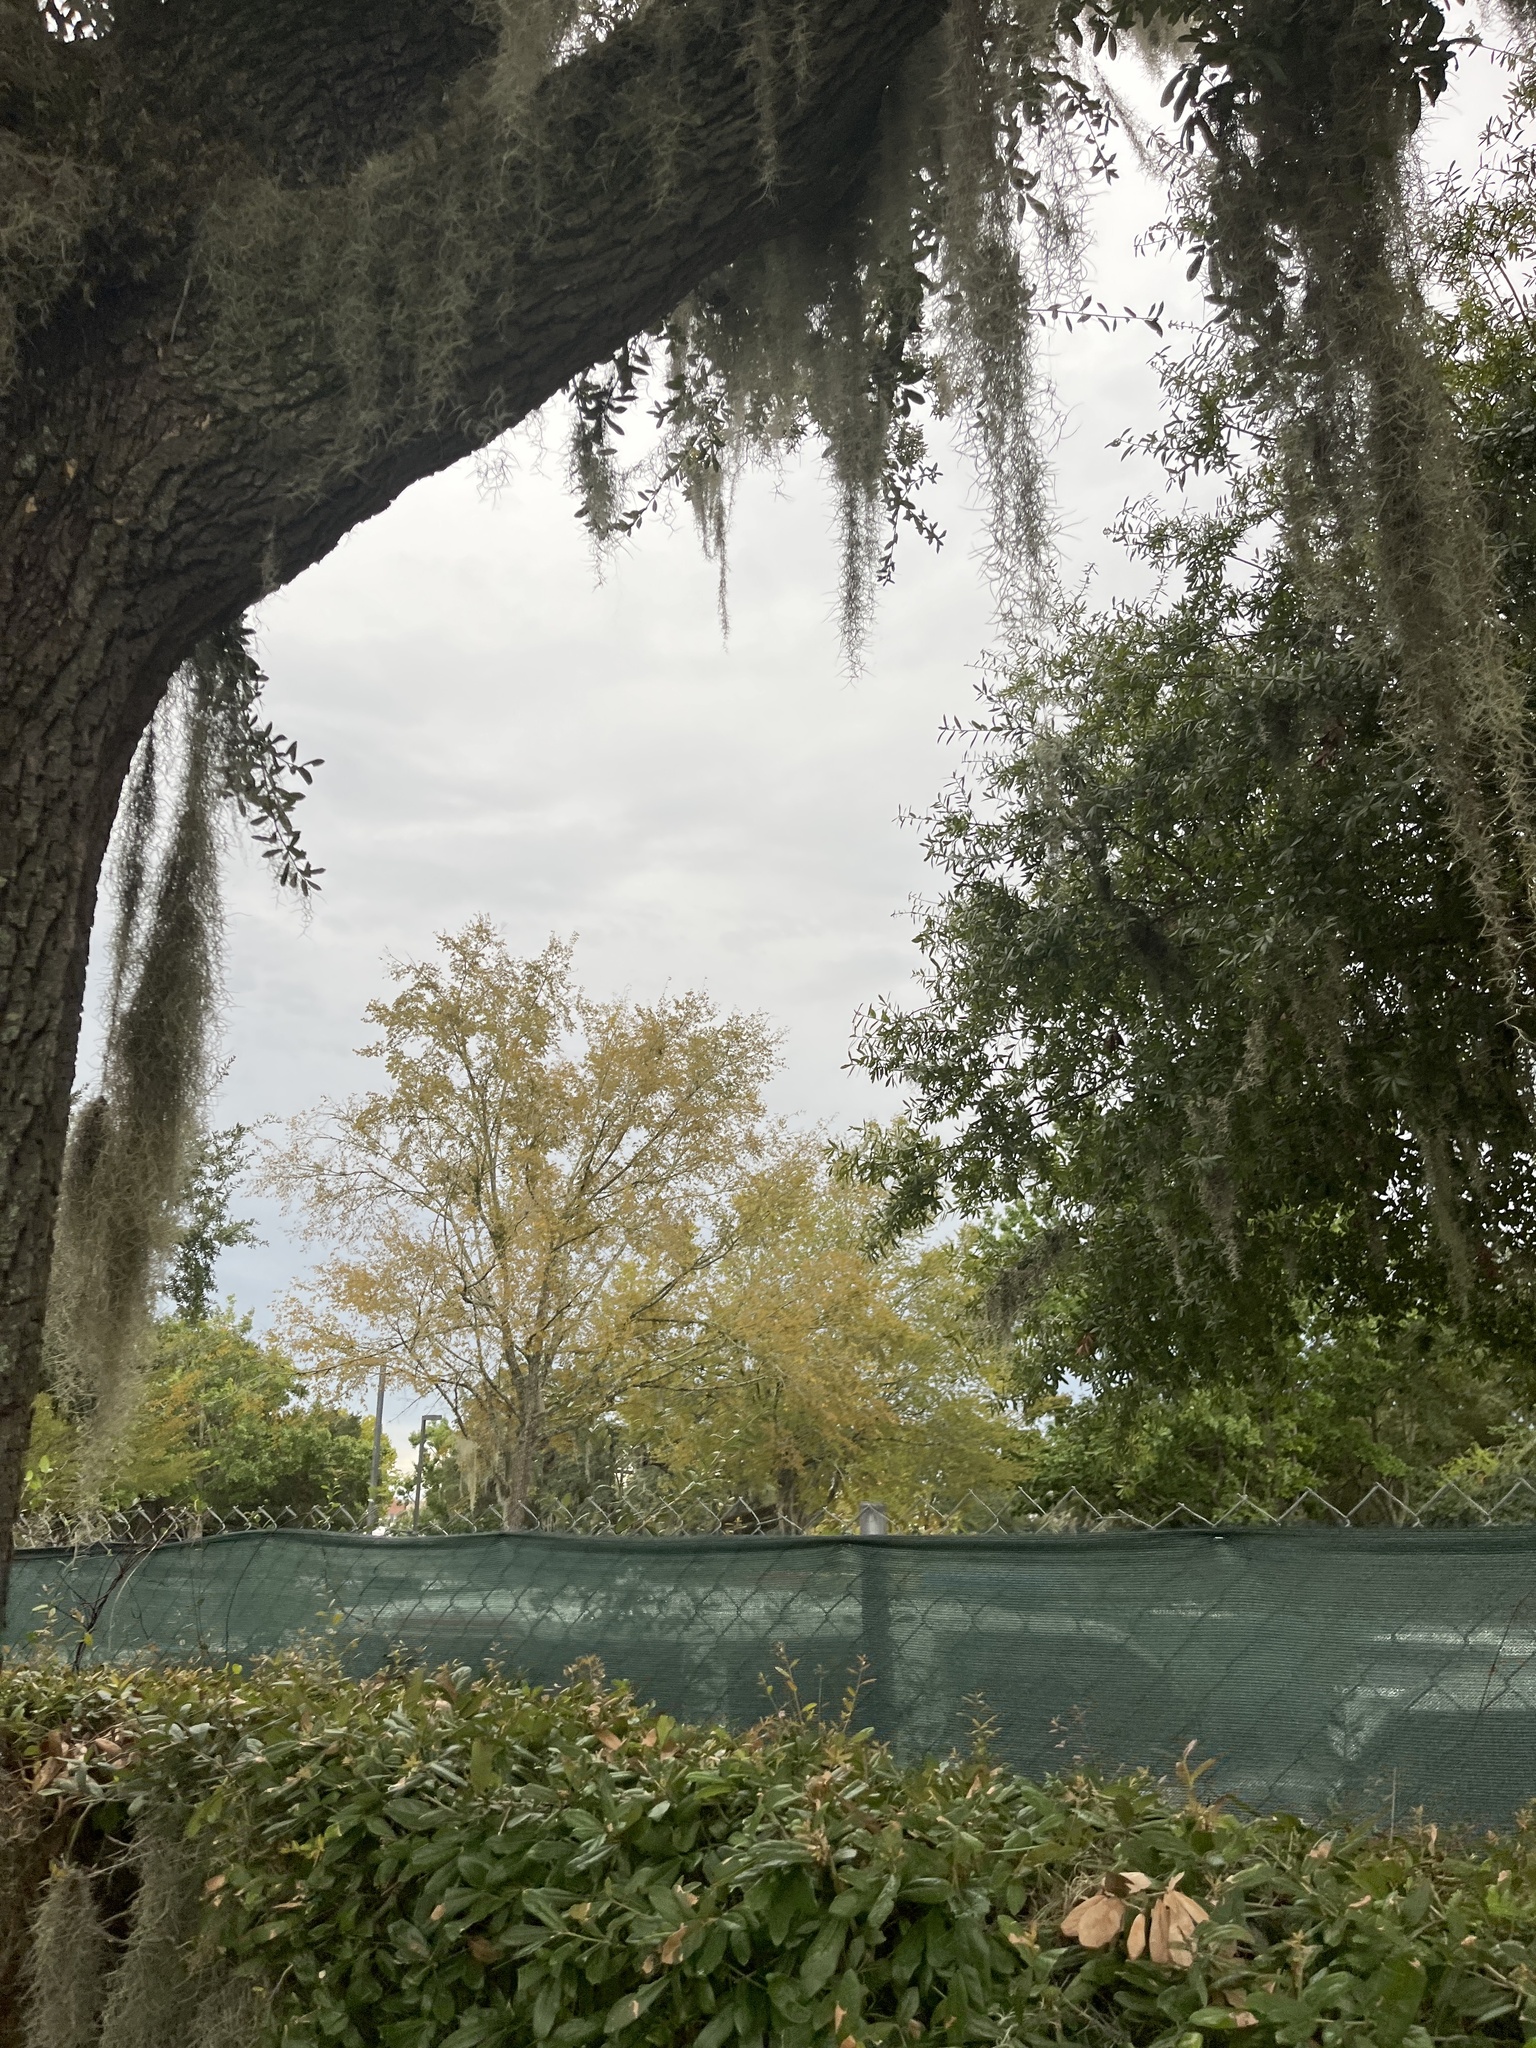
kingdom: Plantae
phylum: Tracheophyta
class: Liliopsida
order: Poales
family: Bromeliaceae
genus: Tillandsia
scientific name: Tillandsia usneoides
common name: Spanish moss
